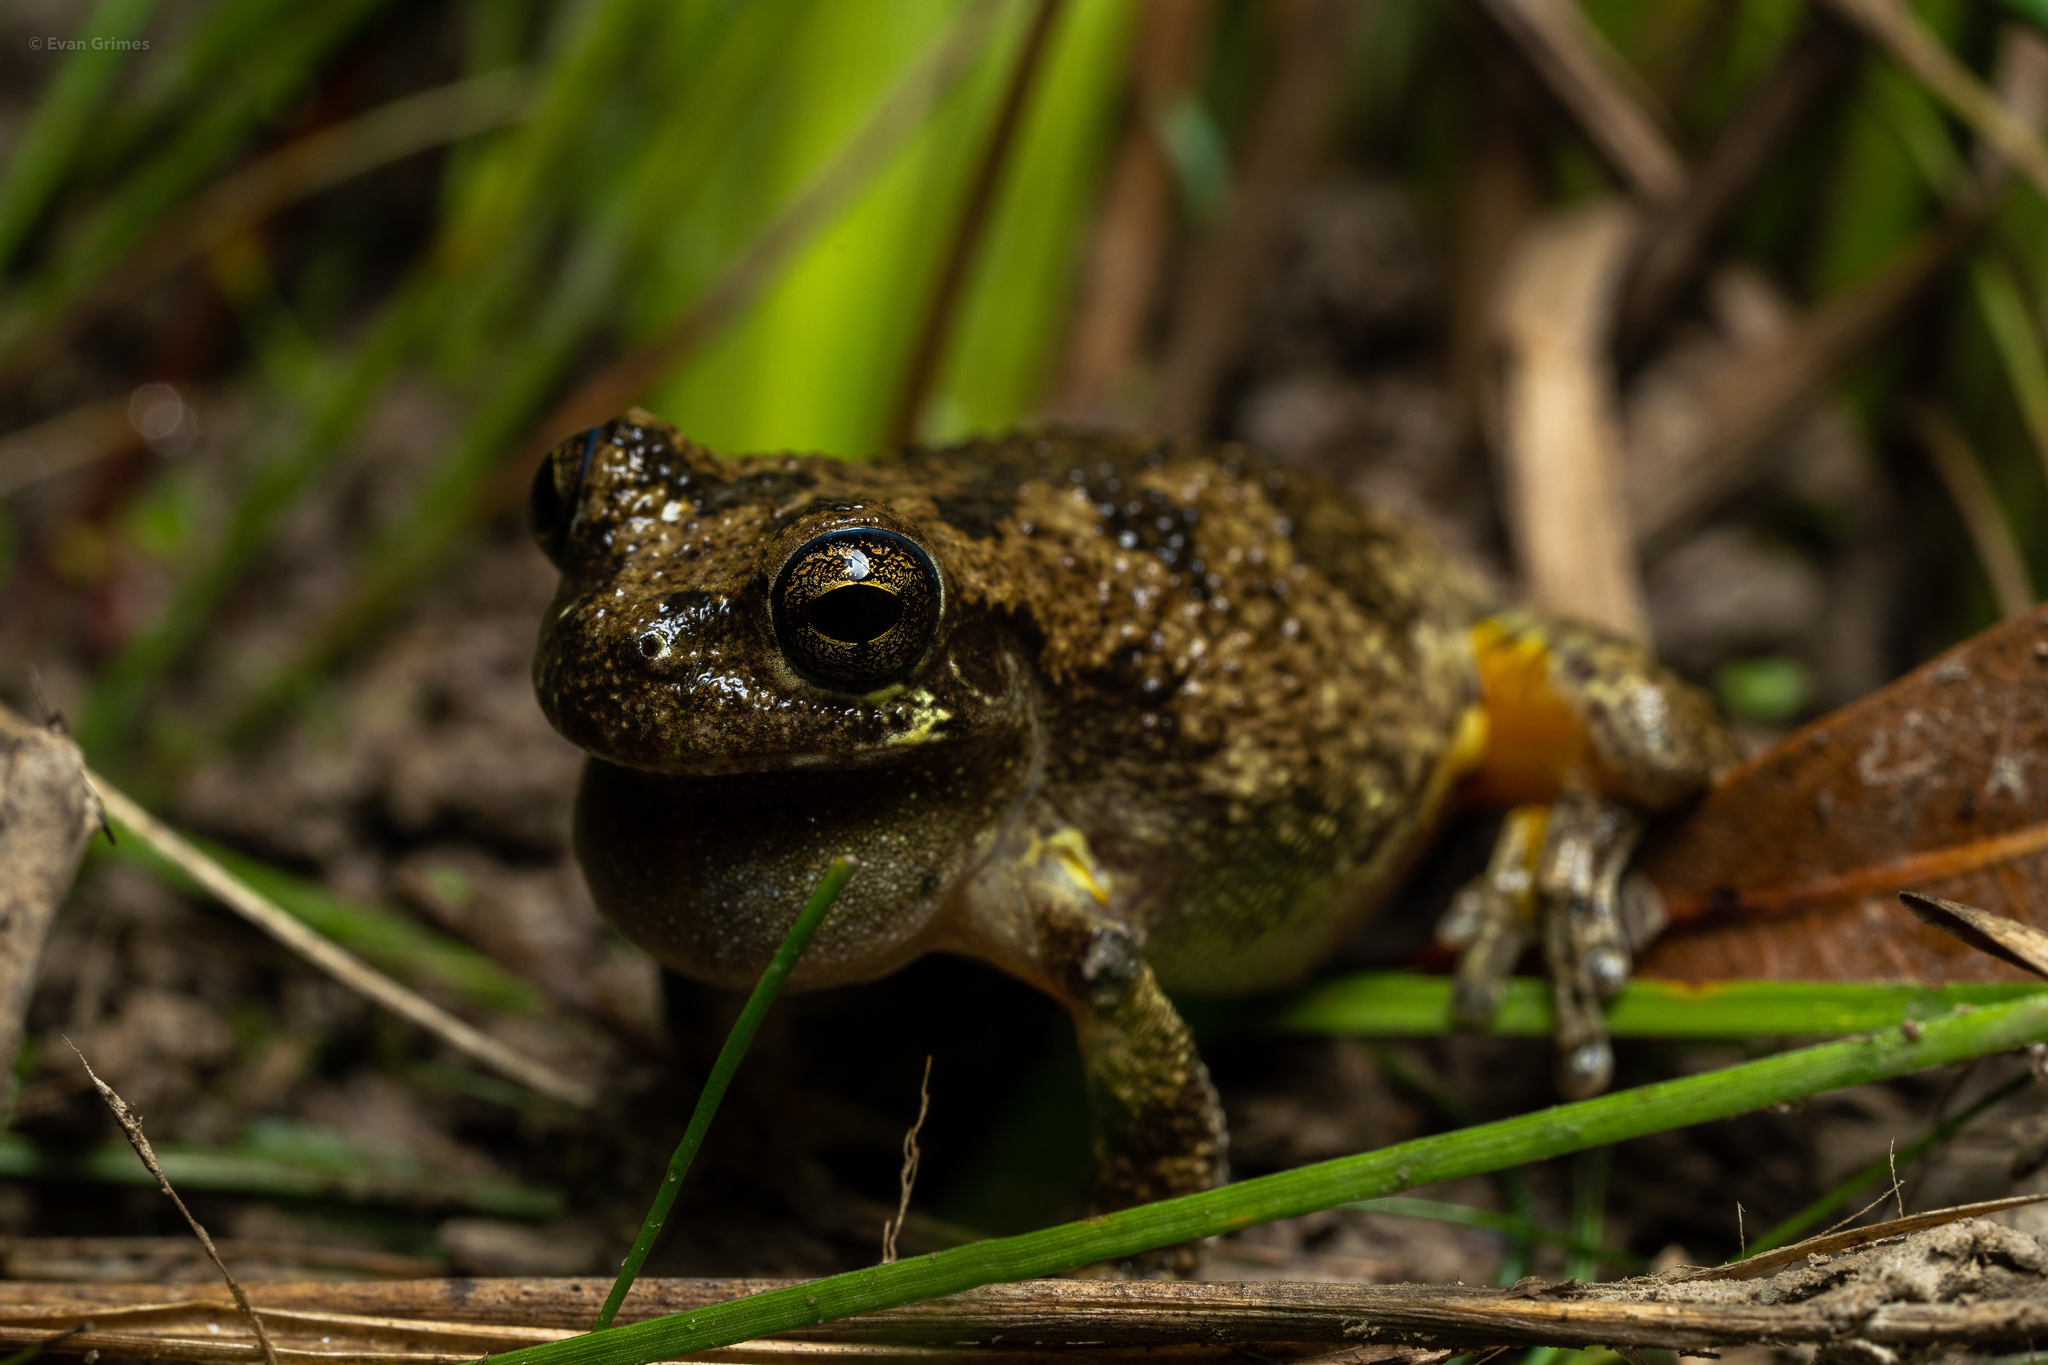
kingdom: Animalia
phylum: Chordata
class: Amphibia
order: Anura
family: Hylidae
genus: Dryophytes
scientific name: Dryophytes chrysoscelis
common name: Cope's gray treefrog
